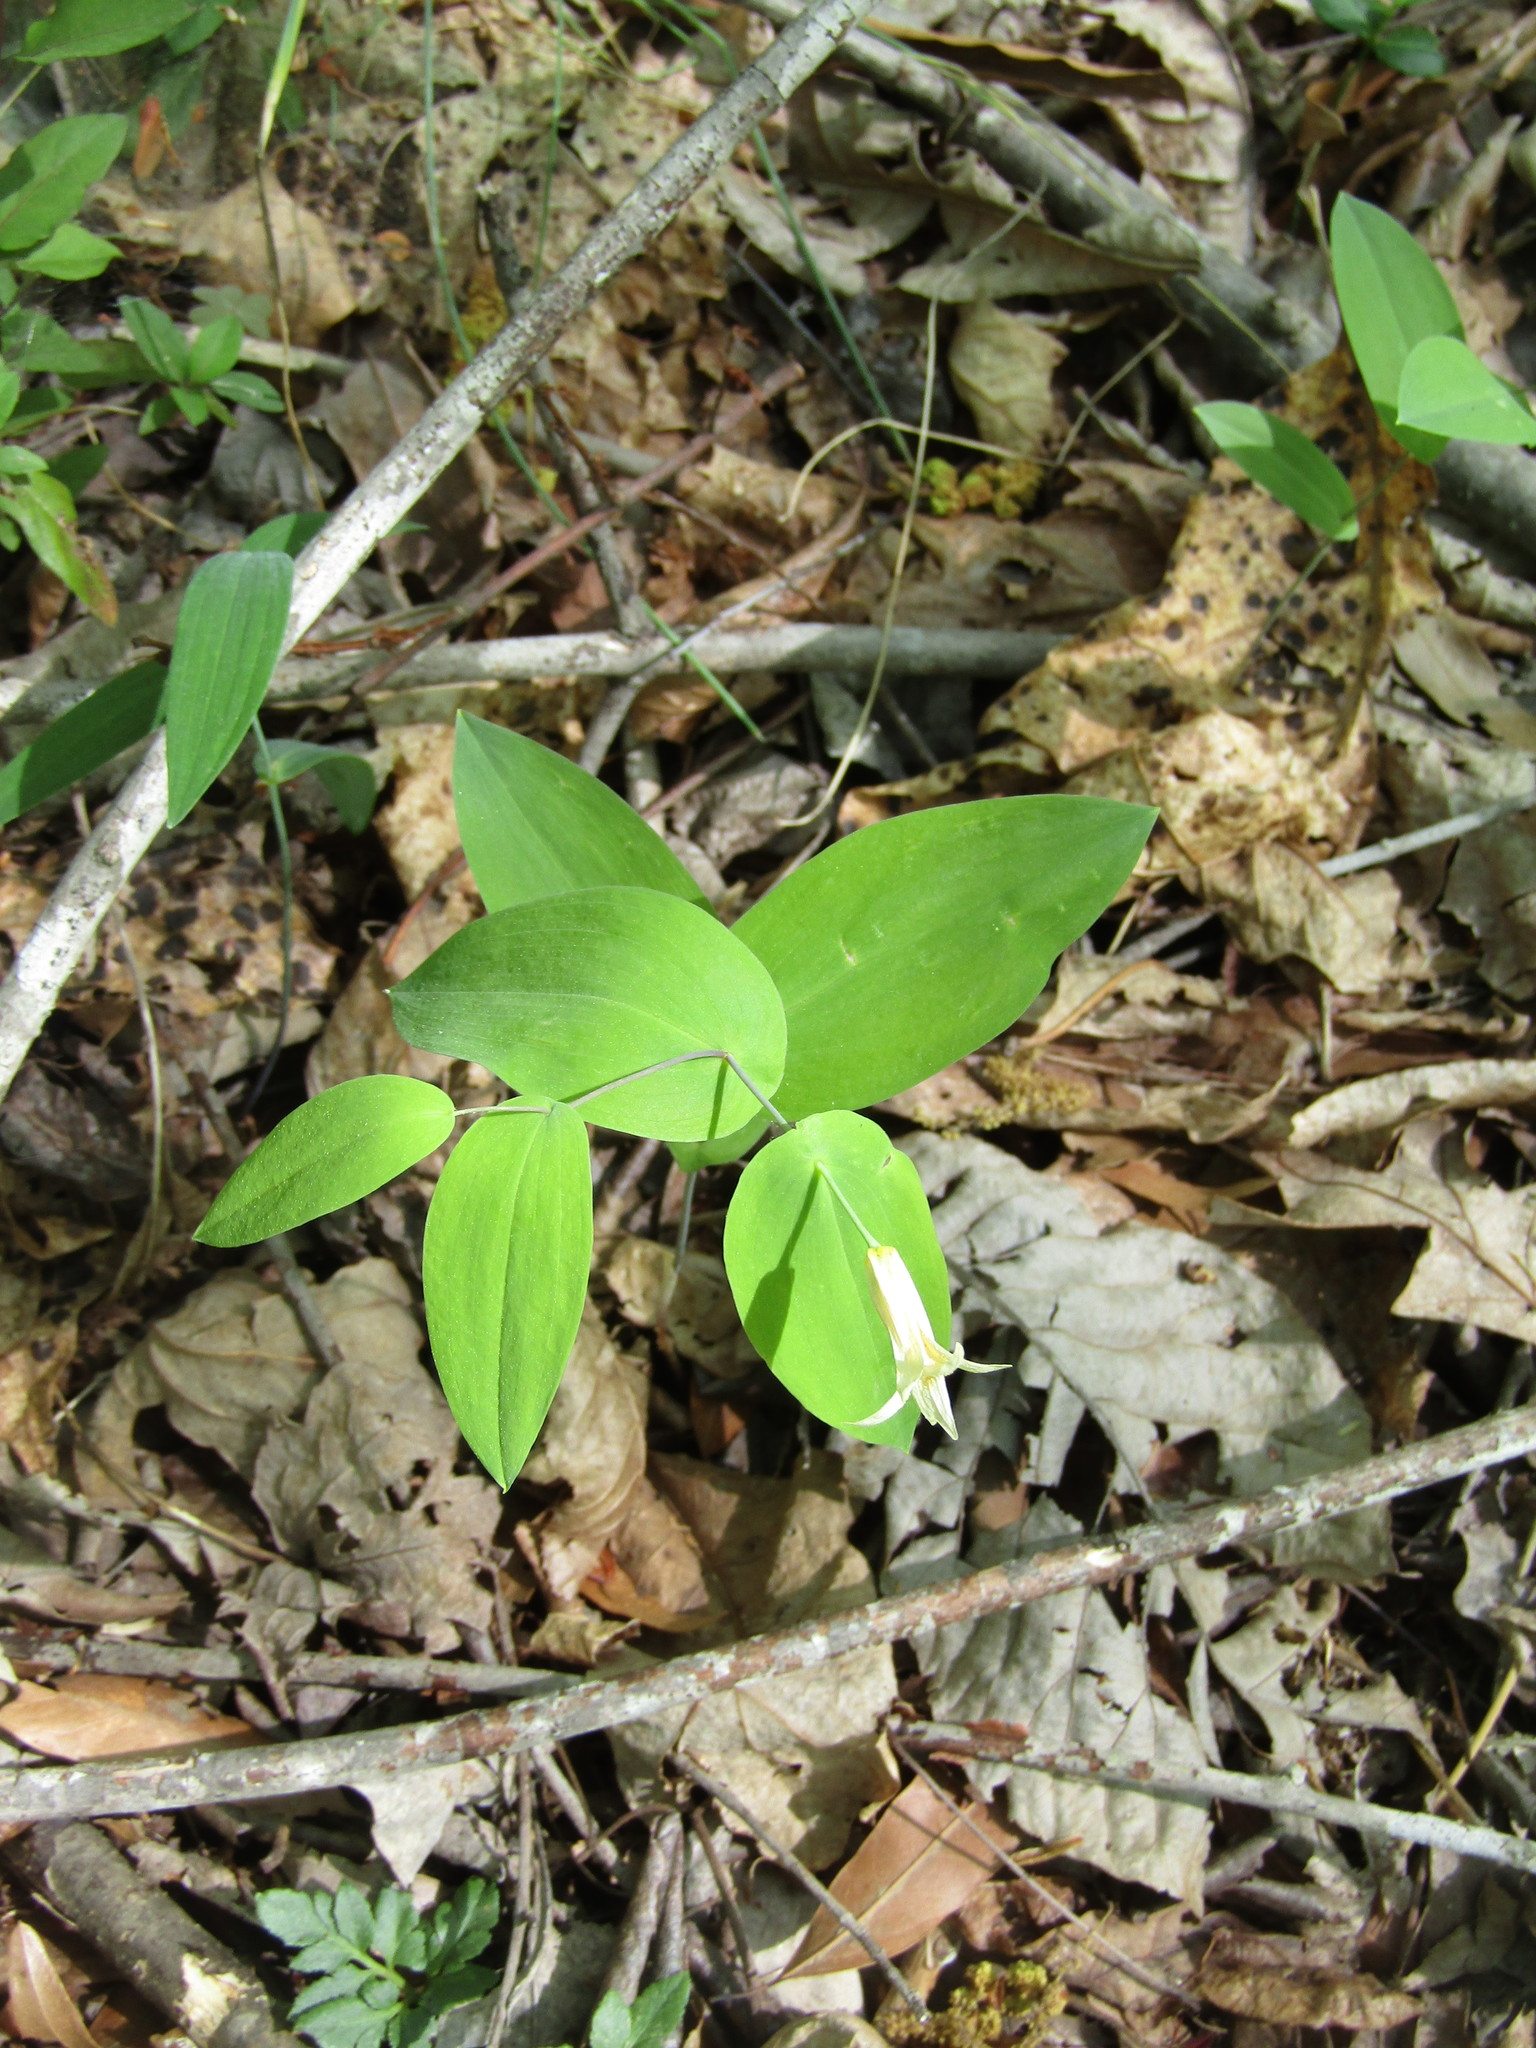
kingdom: Plantae
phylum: Tracheophyta
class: Liliopsida
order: Liliales
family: Colchicaceae
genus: Uvularia
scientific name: Uvularia perfoliata
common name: Perfoliate bellwort
